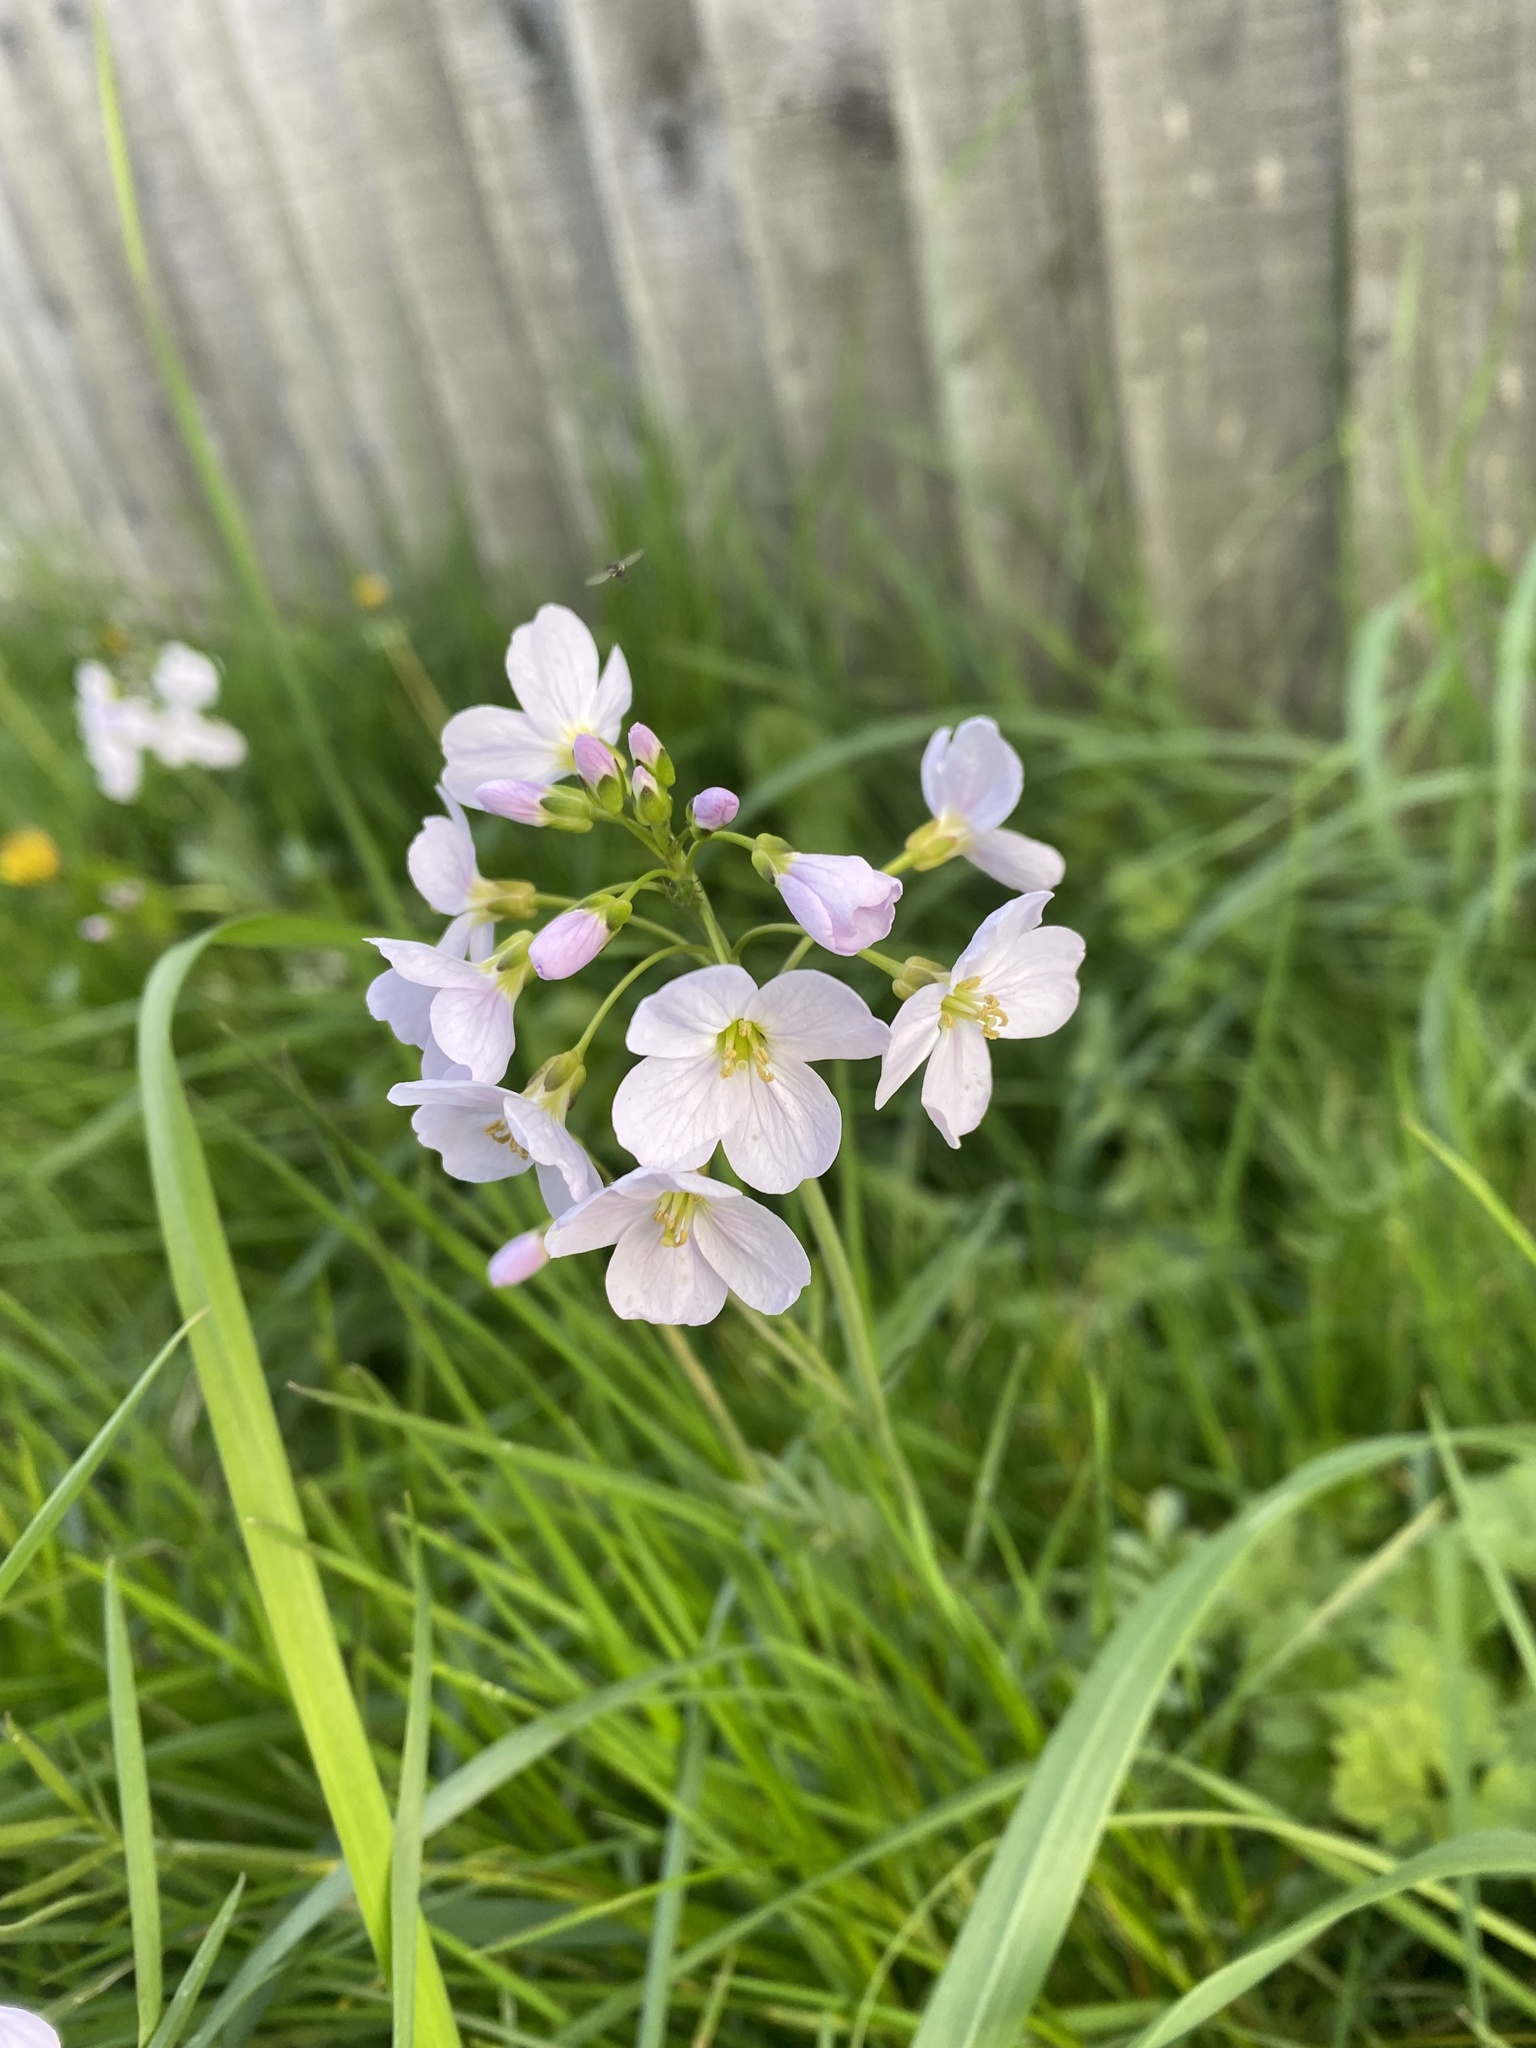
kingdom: Plantae
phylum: Tracheophyta
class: Magnoliopsida
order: Brassicales
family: Brassicaceae
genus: Cardamine
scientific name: Cardamine pratensis
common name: Cuckoo flower
